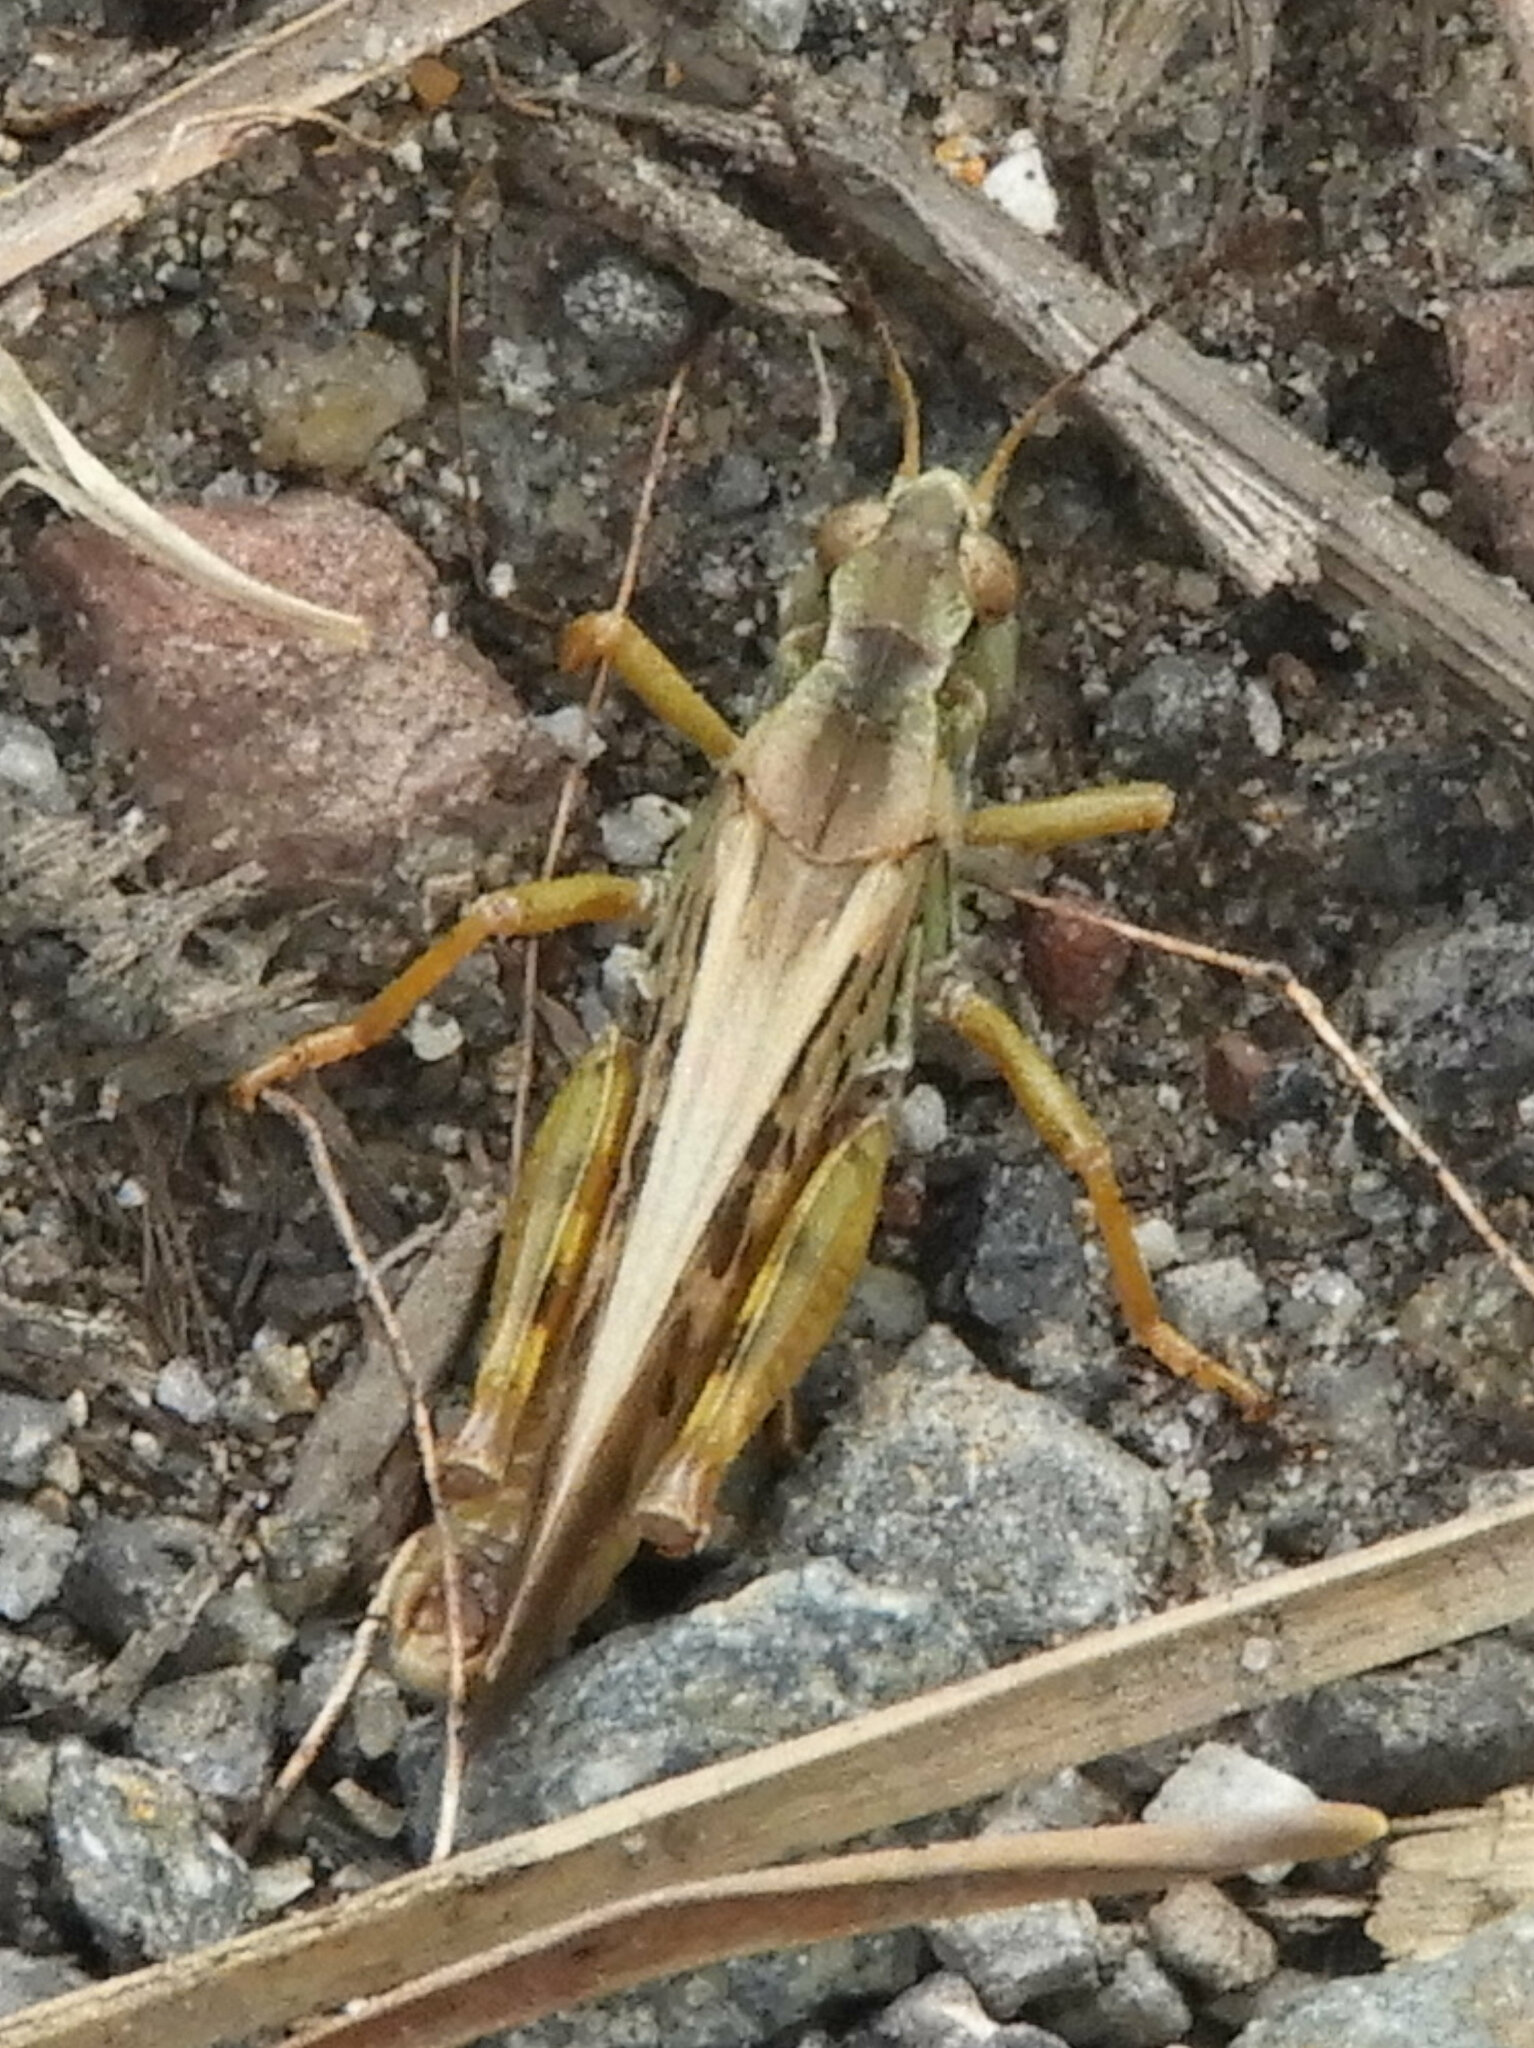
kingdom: Animalia
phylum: Arthropoda
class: Insecta
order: Orthoptera
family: Acrididae
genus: Camnula
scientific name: Camnula pellucida
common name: Clear-winged grasshopper
